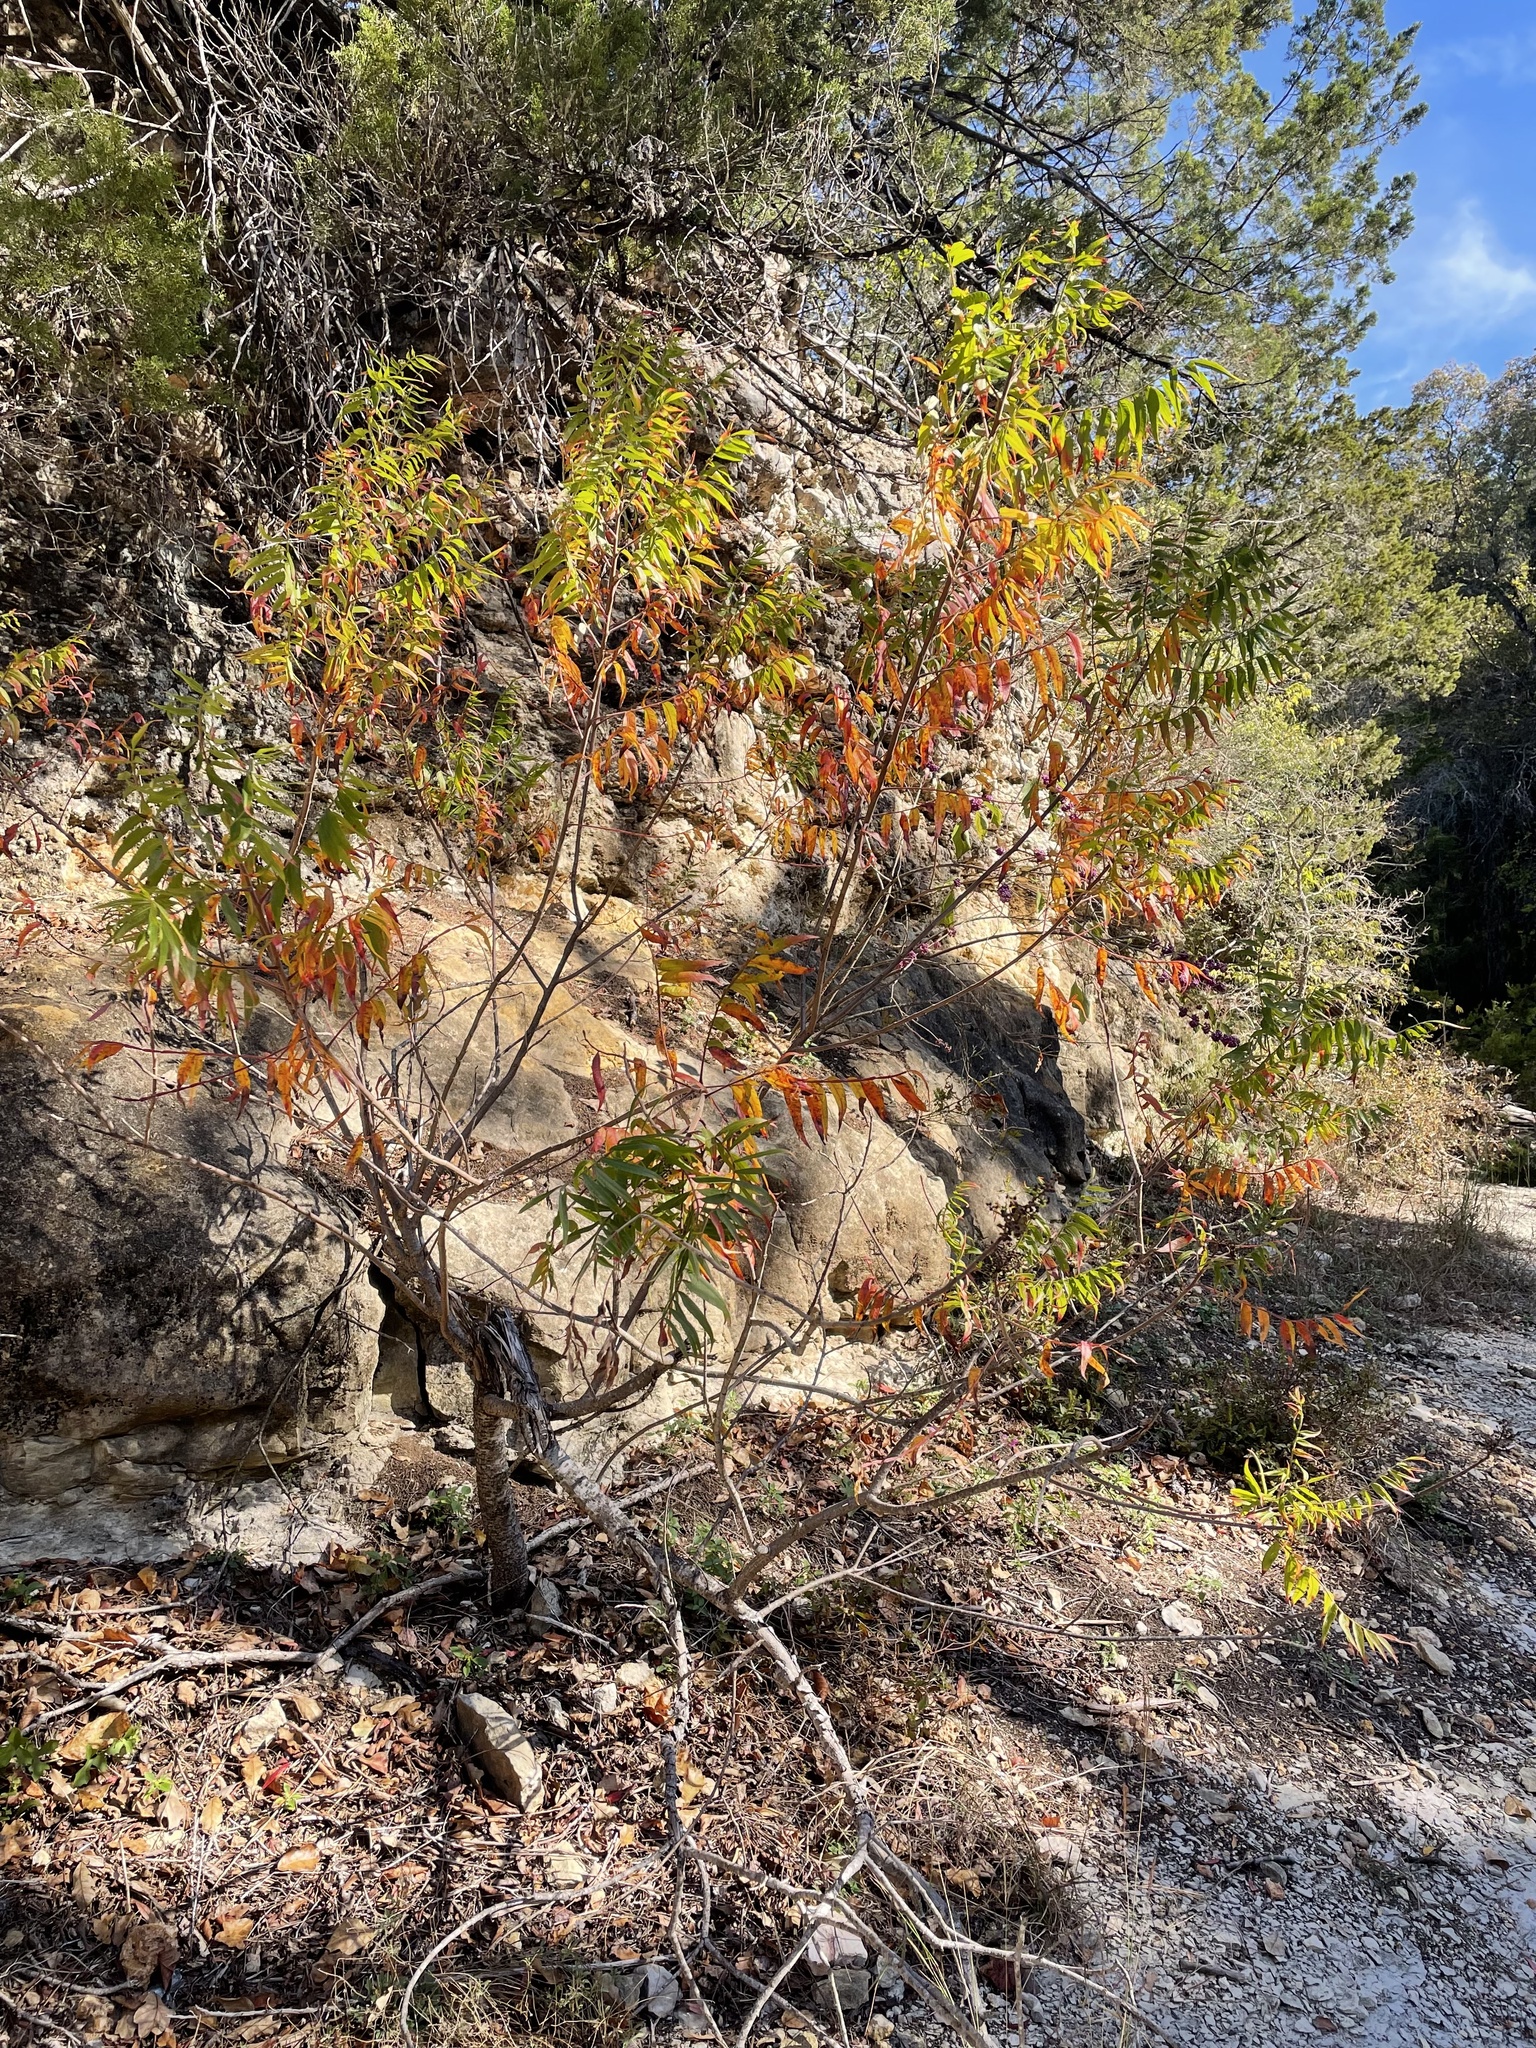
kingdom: Plantae
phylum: Tracheophyta
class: Magnoliopsida
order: Sapindales
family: Anacardiaceae
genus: Rhus
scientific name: Rhus lanceolata
